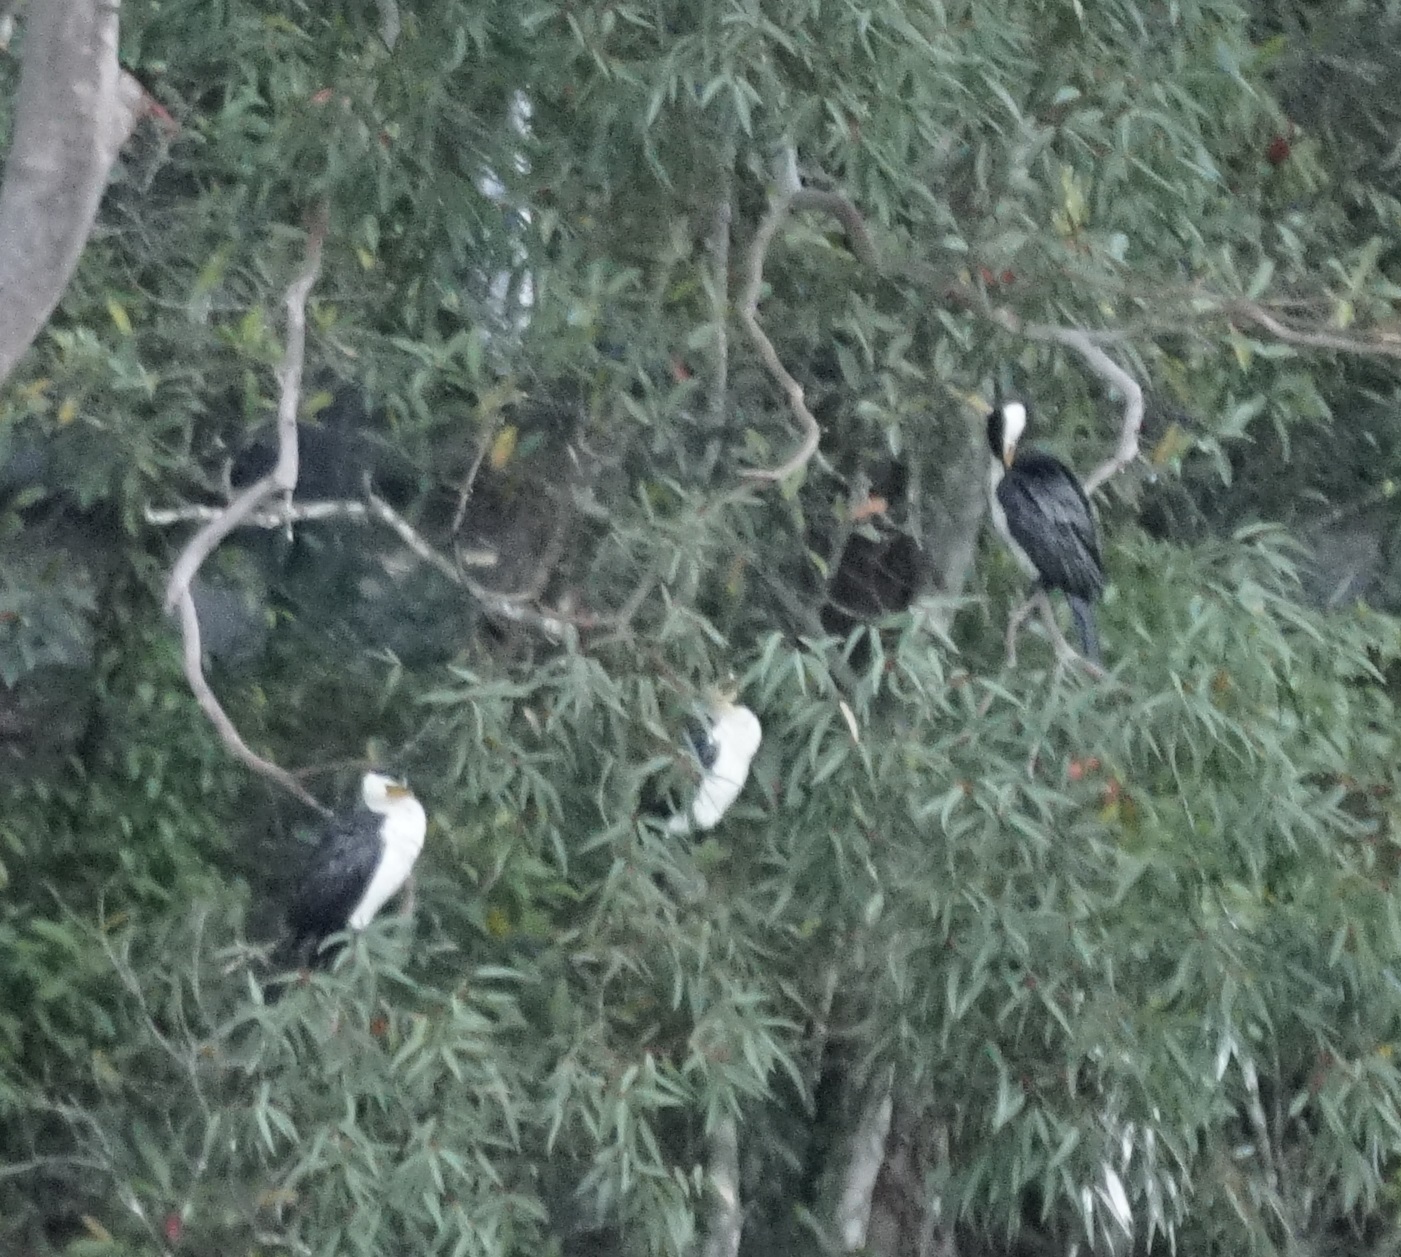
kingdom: Animalia
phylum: Chordata
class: Aves
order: Suliformes
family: Phalacrocoracidae
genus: Microcarbo
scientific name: Microcarbo melanoleucos
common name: Little pied cormorant
